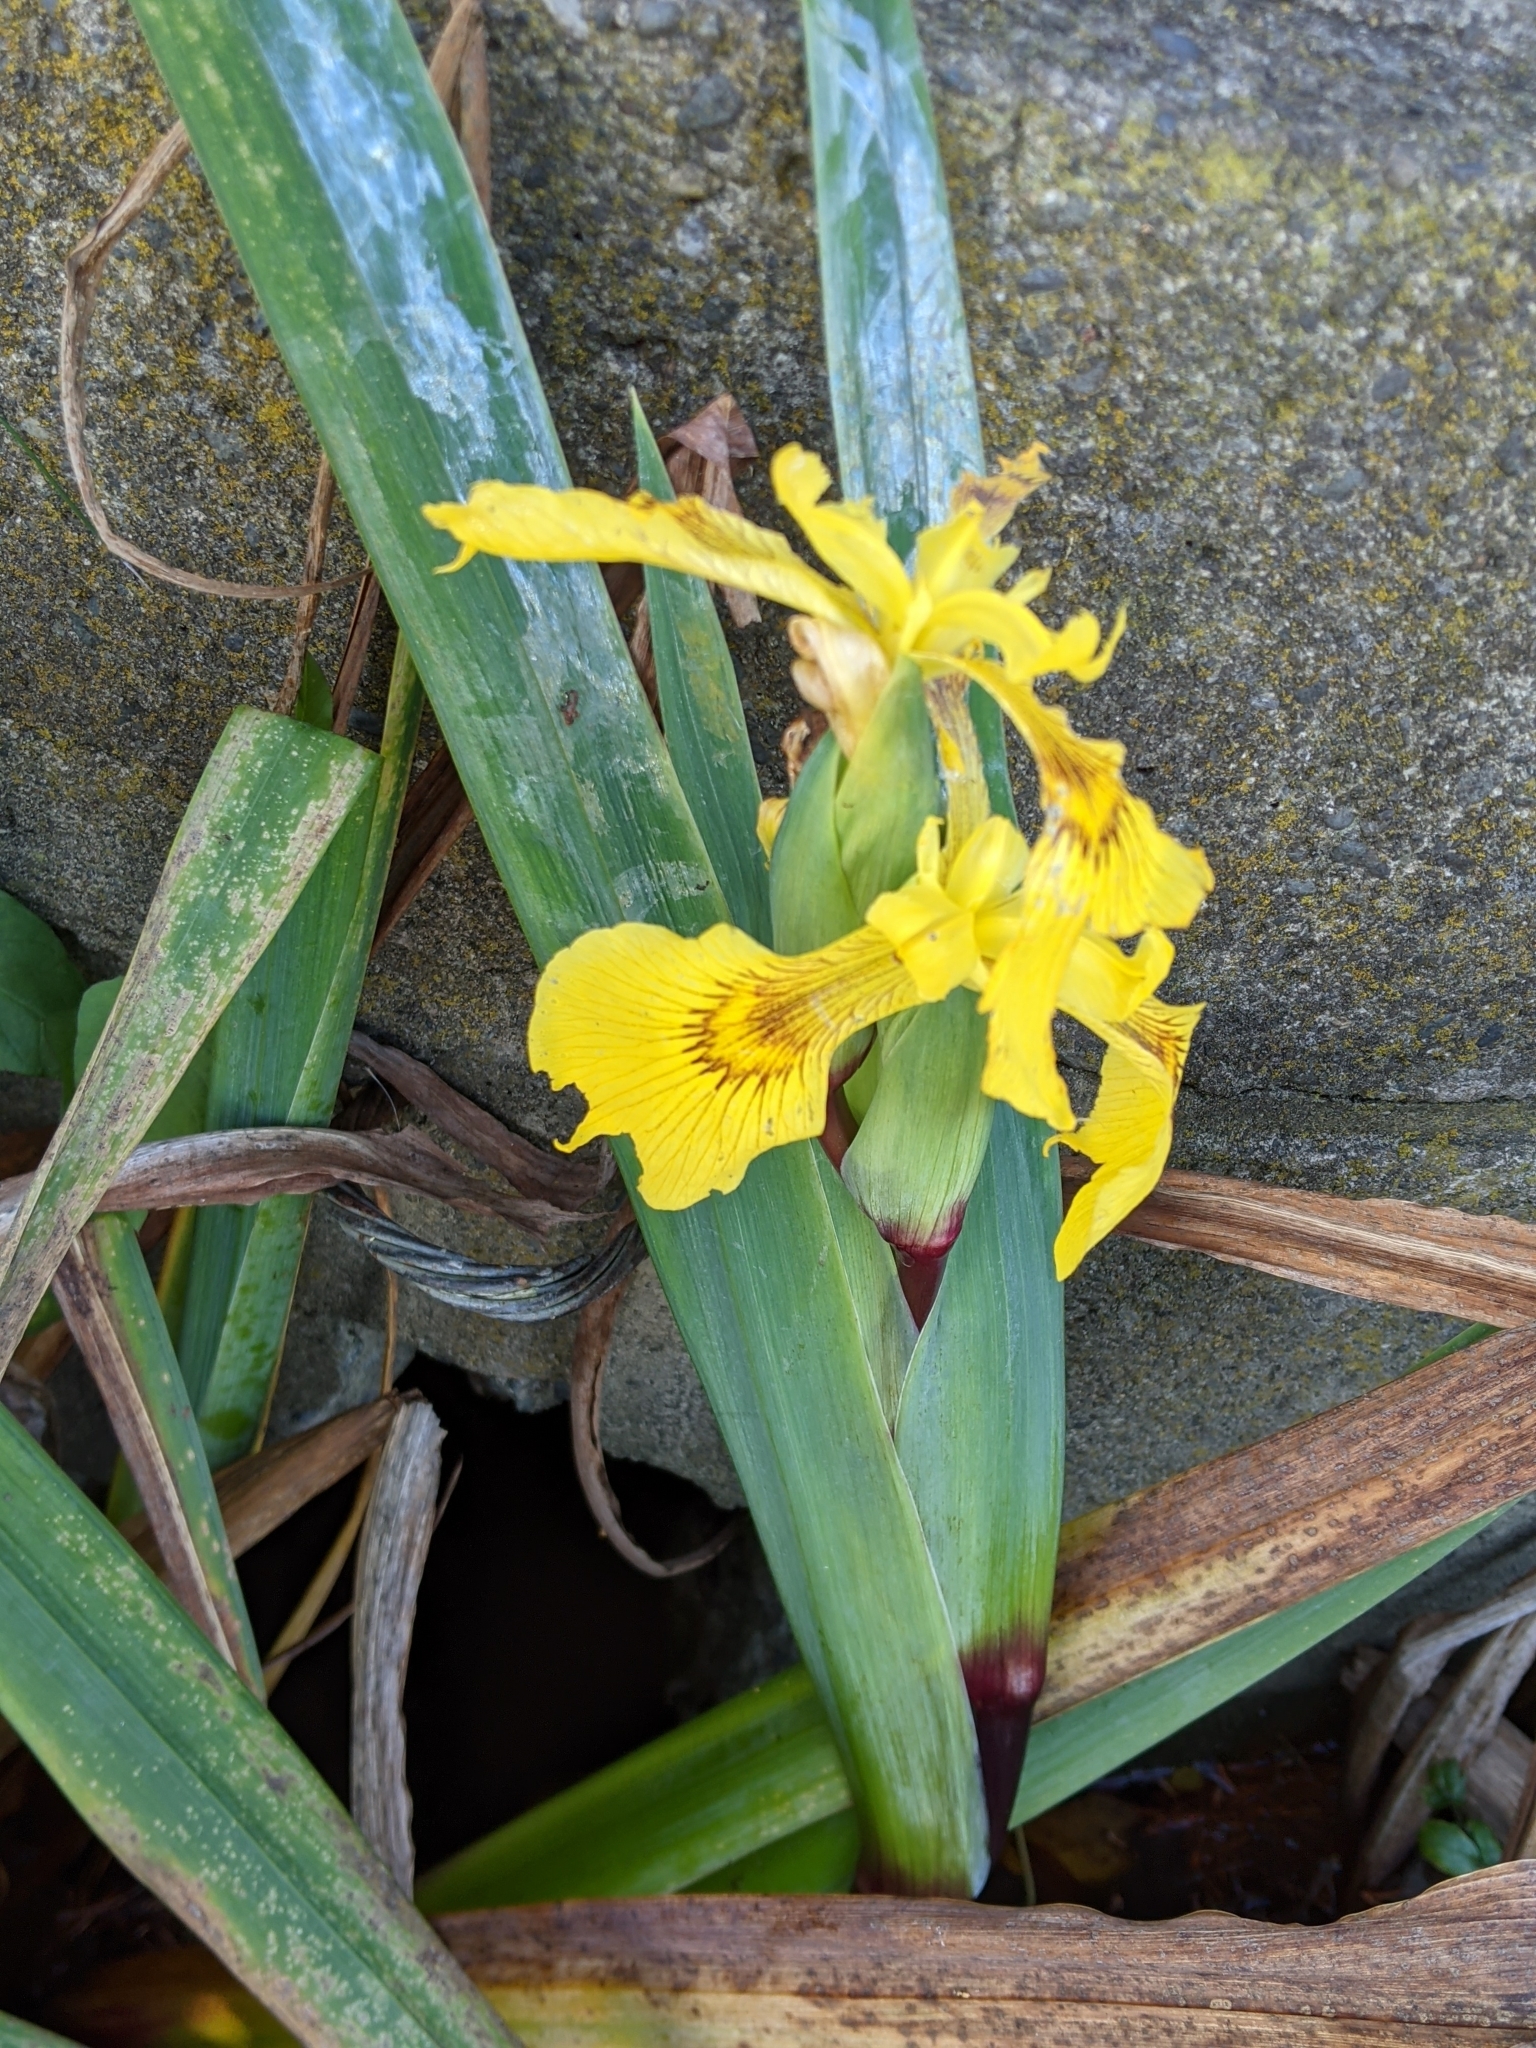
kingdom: Plantae
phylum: Tracheophyta
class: Liliopsida
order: Asparagales
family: Iridaceae
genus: Iris
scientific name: Iris pseudacorus
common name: Yellow flag
